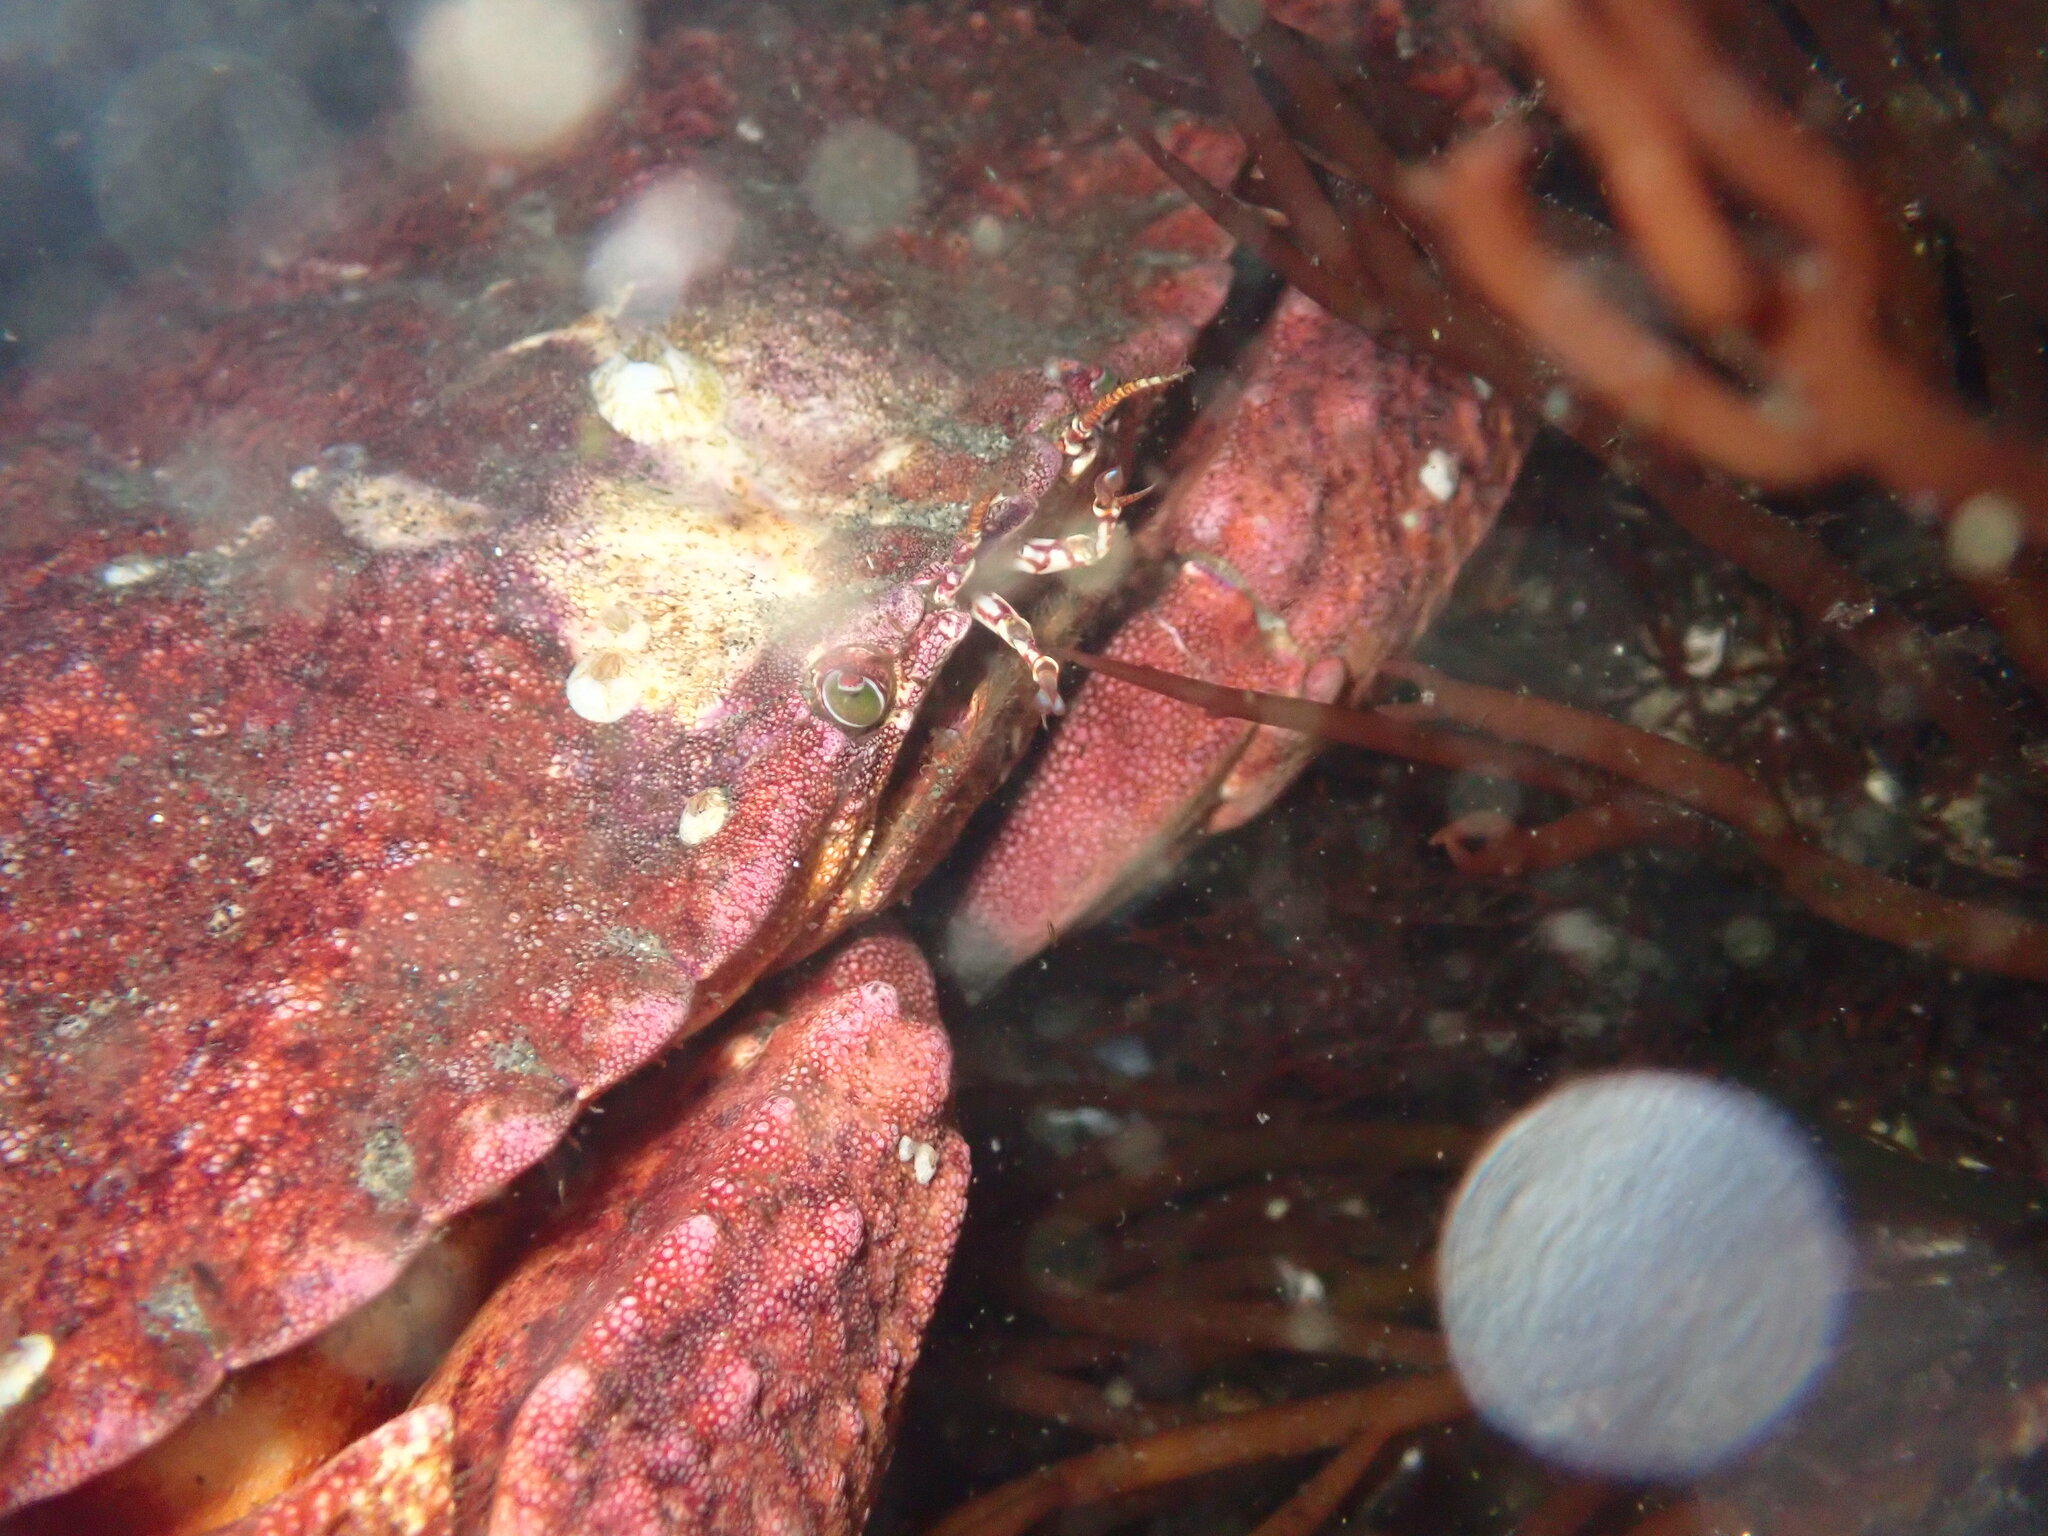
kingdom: Animalia
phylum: Arthropoda
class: Malacostraca
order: Decapoda
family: Cancridae
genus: Cancer
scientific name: Cancer productus
